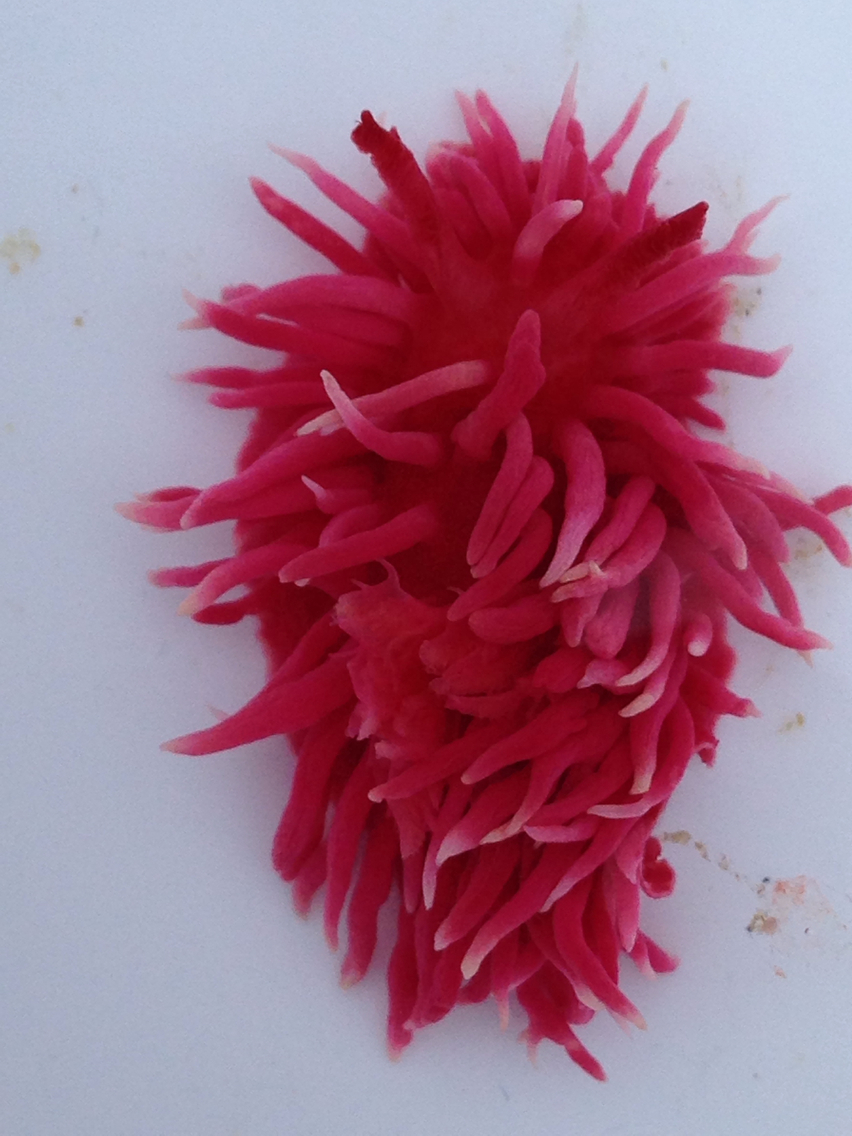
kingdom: Animalia
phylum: Mollusca
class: Gastropoda
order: Nudibranchia
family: Goniodorididae
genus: Okenia
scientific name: Okenia
